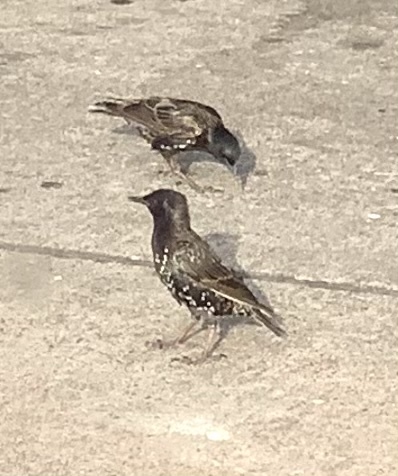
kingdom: Animalia
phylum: Chordata
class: Aves
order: Passeriformes
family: Sturnidae
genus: Sturnus
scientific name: Sturnus vulgaris
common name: Common starling
